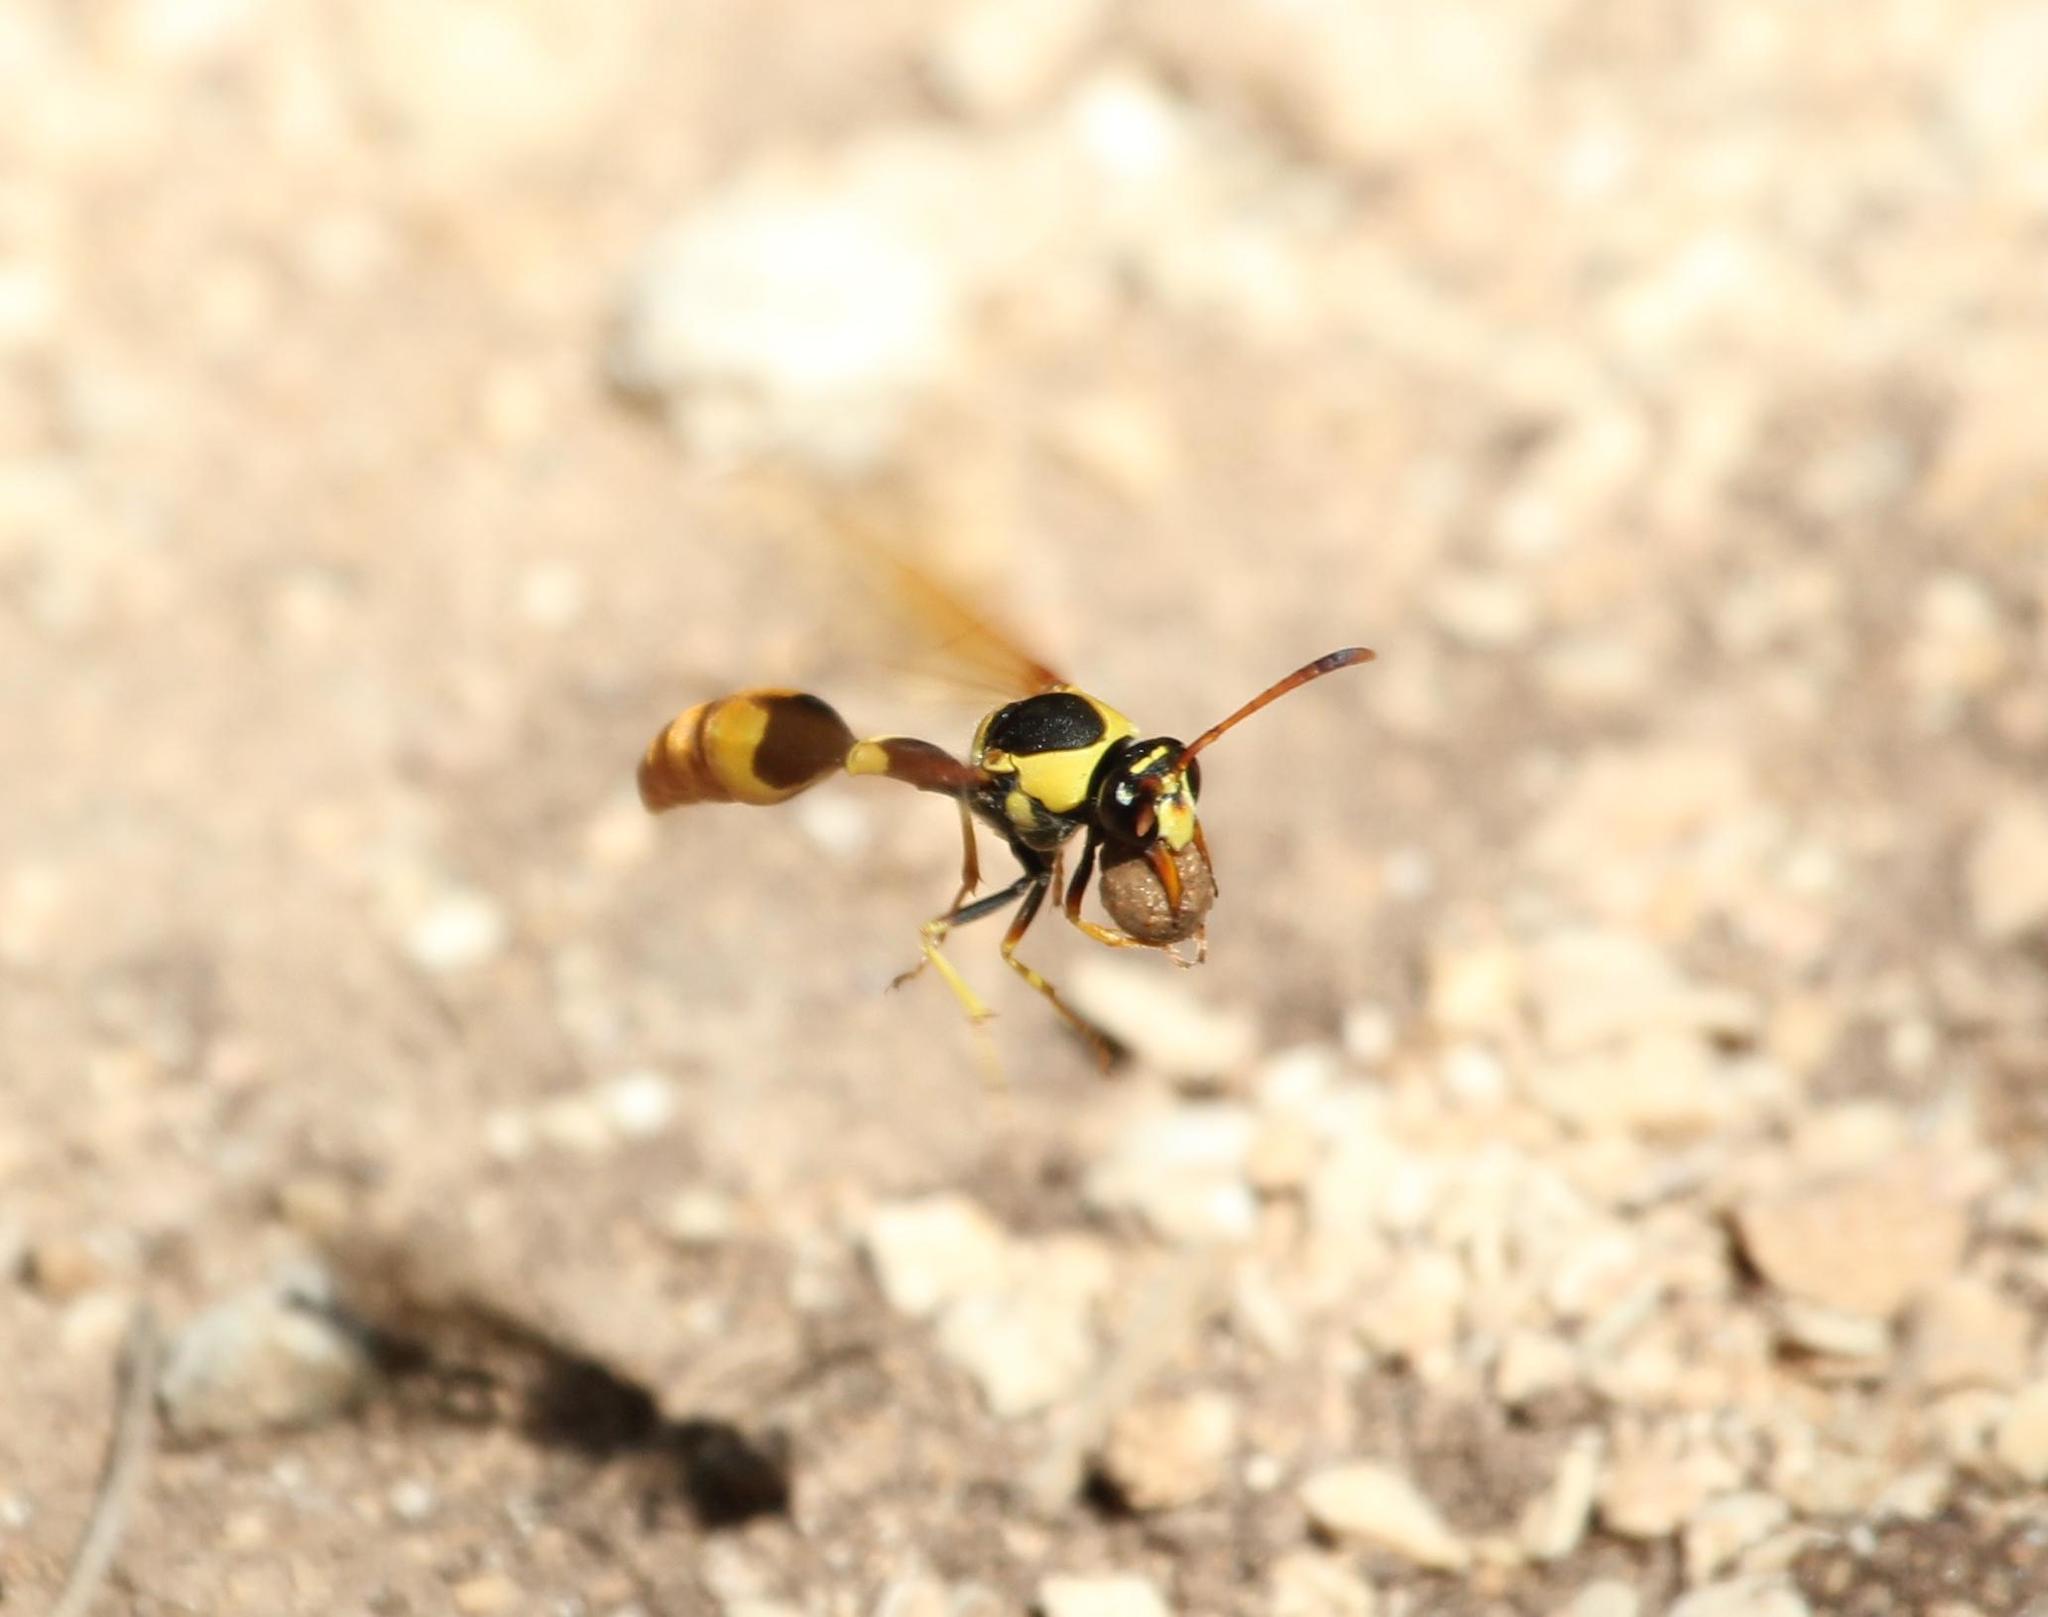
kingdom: Animalia
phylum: Arthropoda
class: Insecta
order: Hymenoptera
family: Eumenidae
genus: Zeta
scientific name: Zeta abdominale
